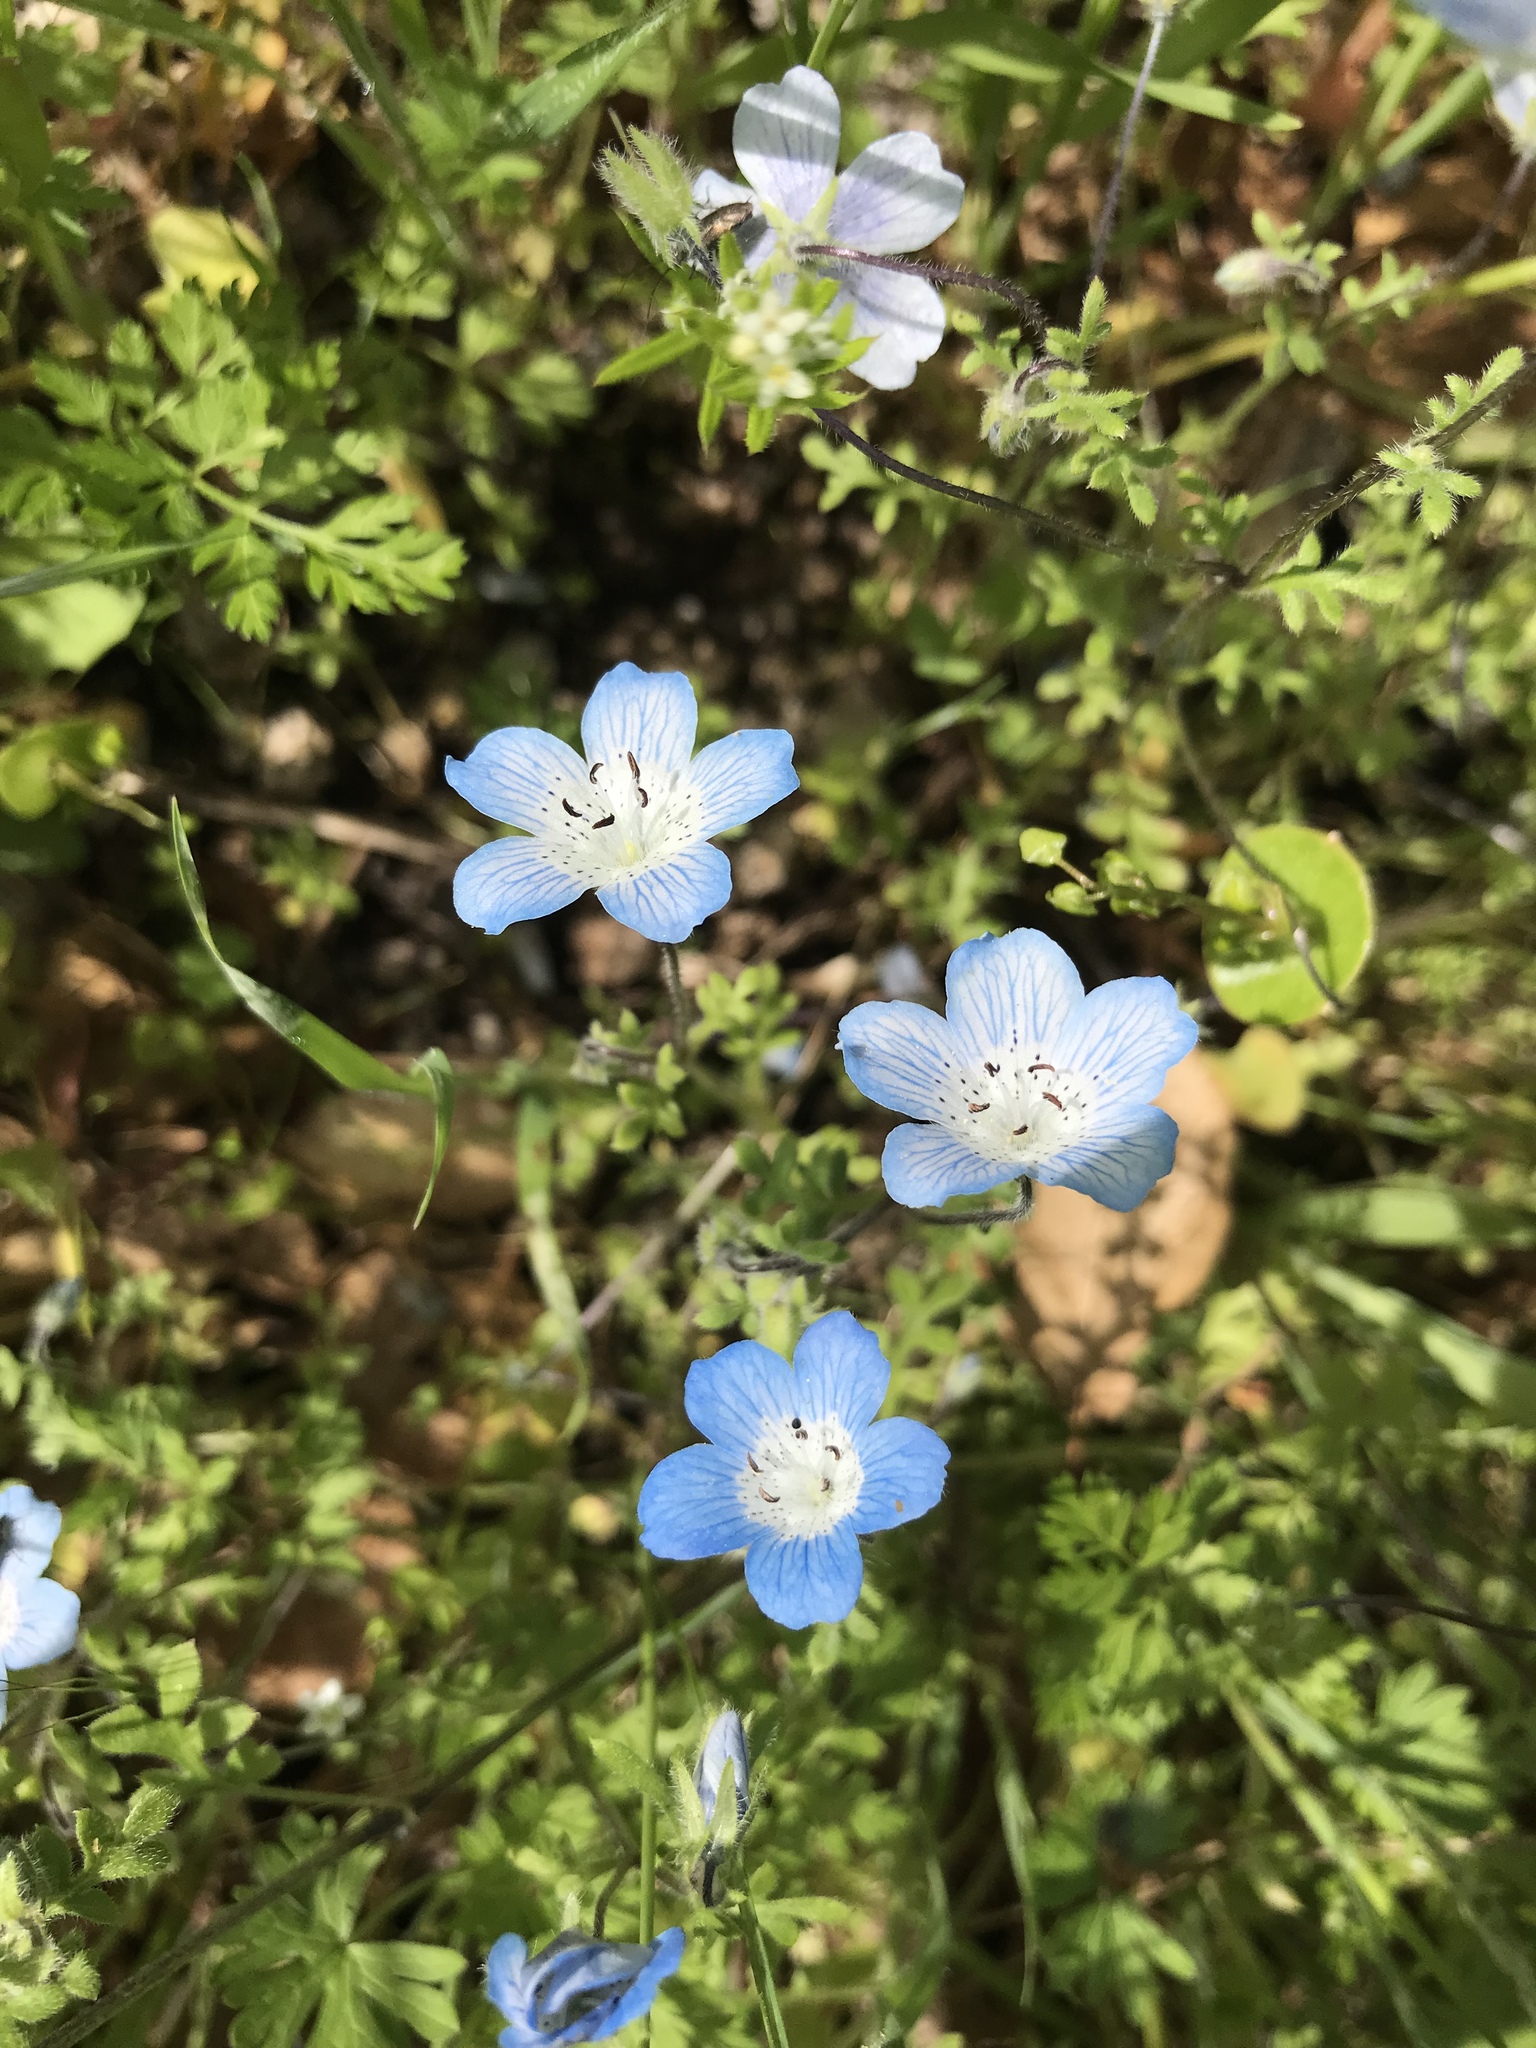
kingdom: Plantae
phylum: Tracheophyta
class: Magnoliopsida
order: Boraginales
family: Hydrophyllaceae
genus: Nemophila
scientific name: Nemophila menziesii
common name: Baby's-blue-eyes
